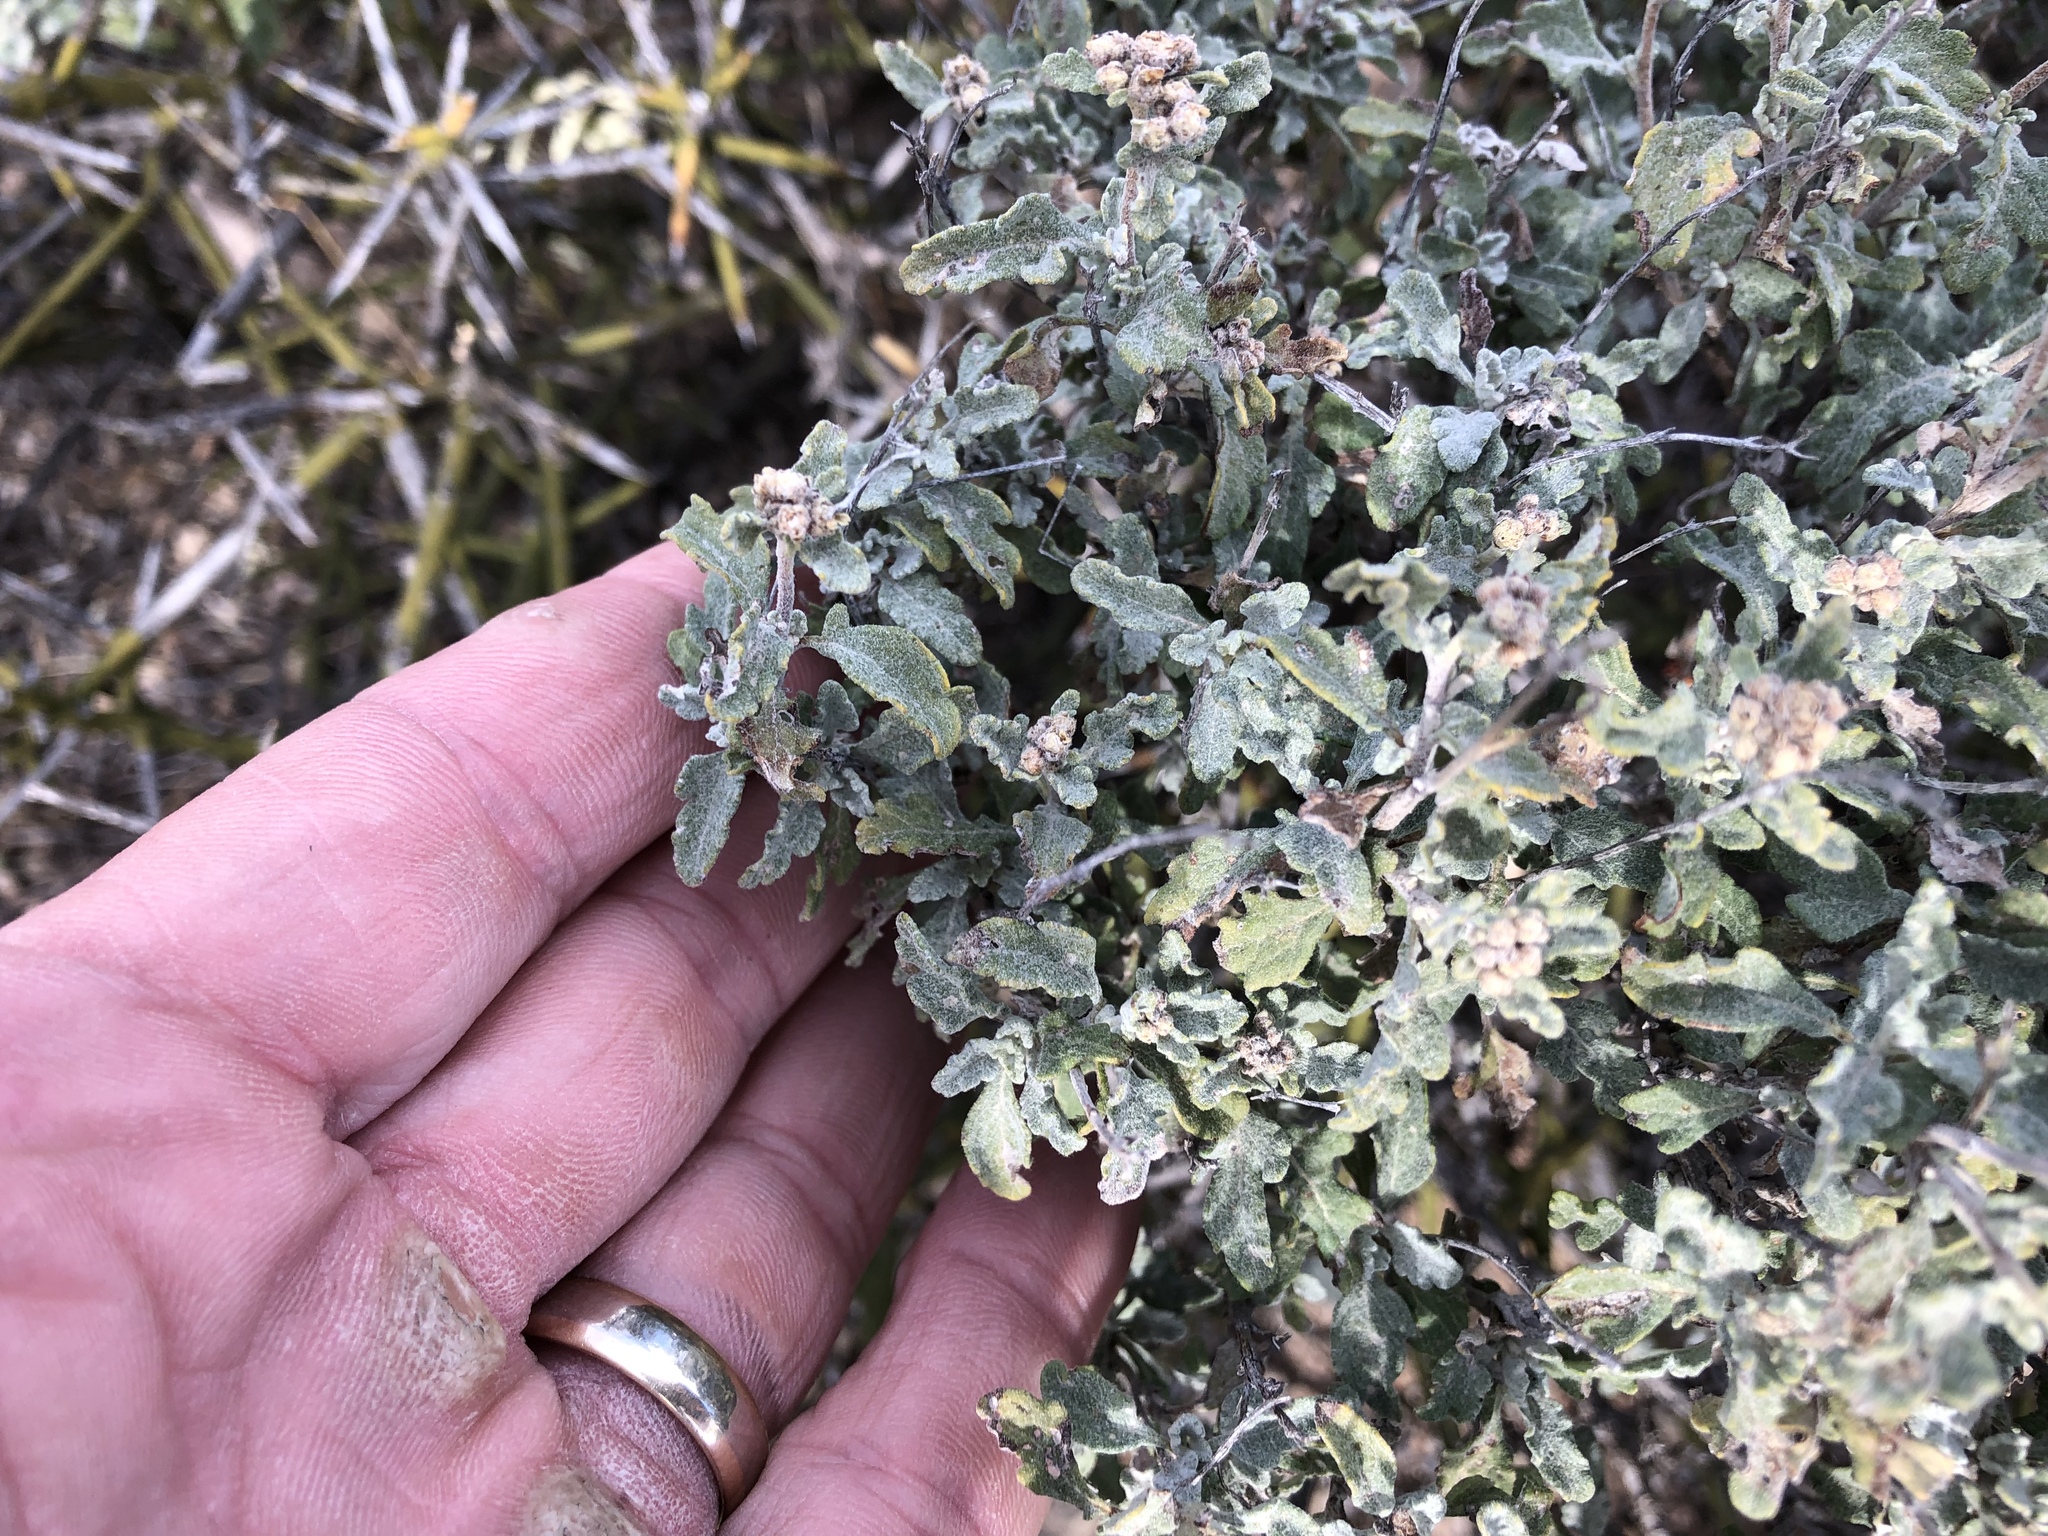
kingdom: Plantae
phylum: Tracheophyta
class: Magnoliopsida
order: Asterales
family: Asteraceae
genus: Parthenium
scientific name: Parthenium incanum
